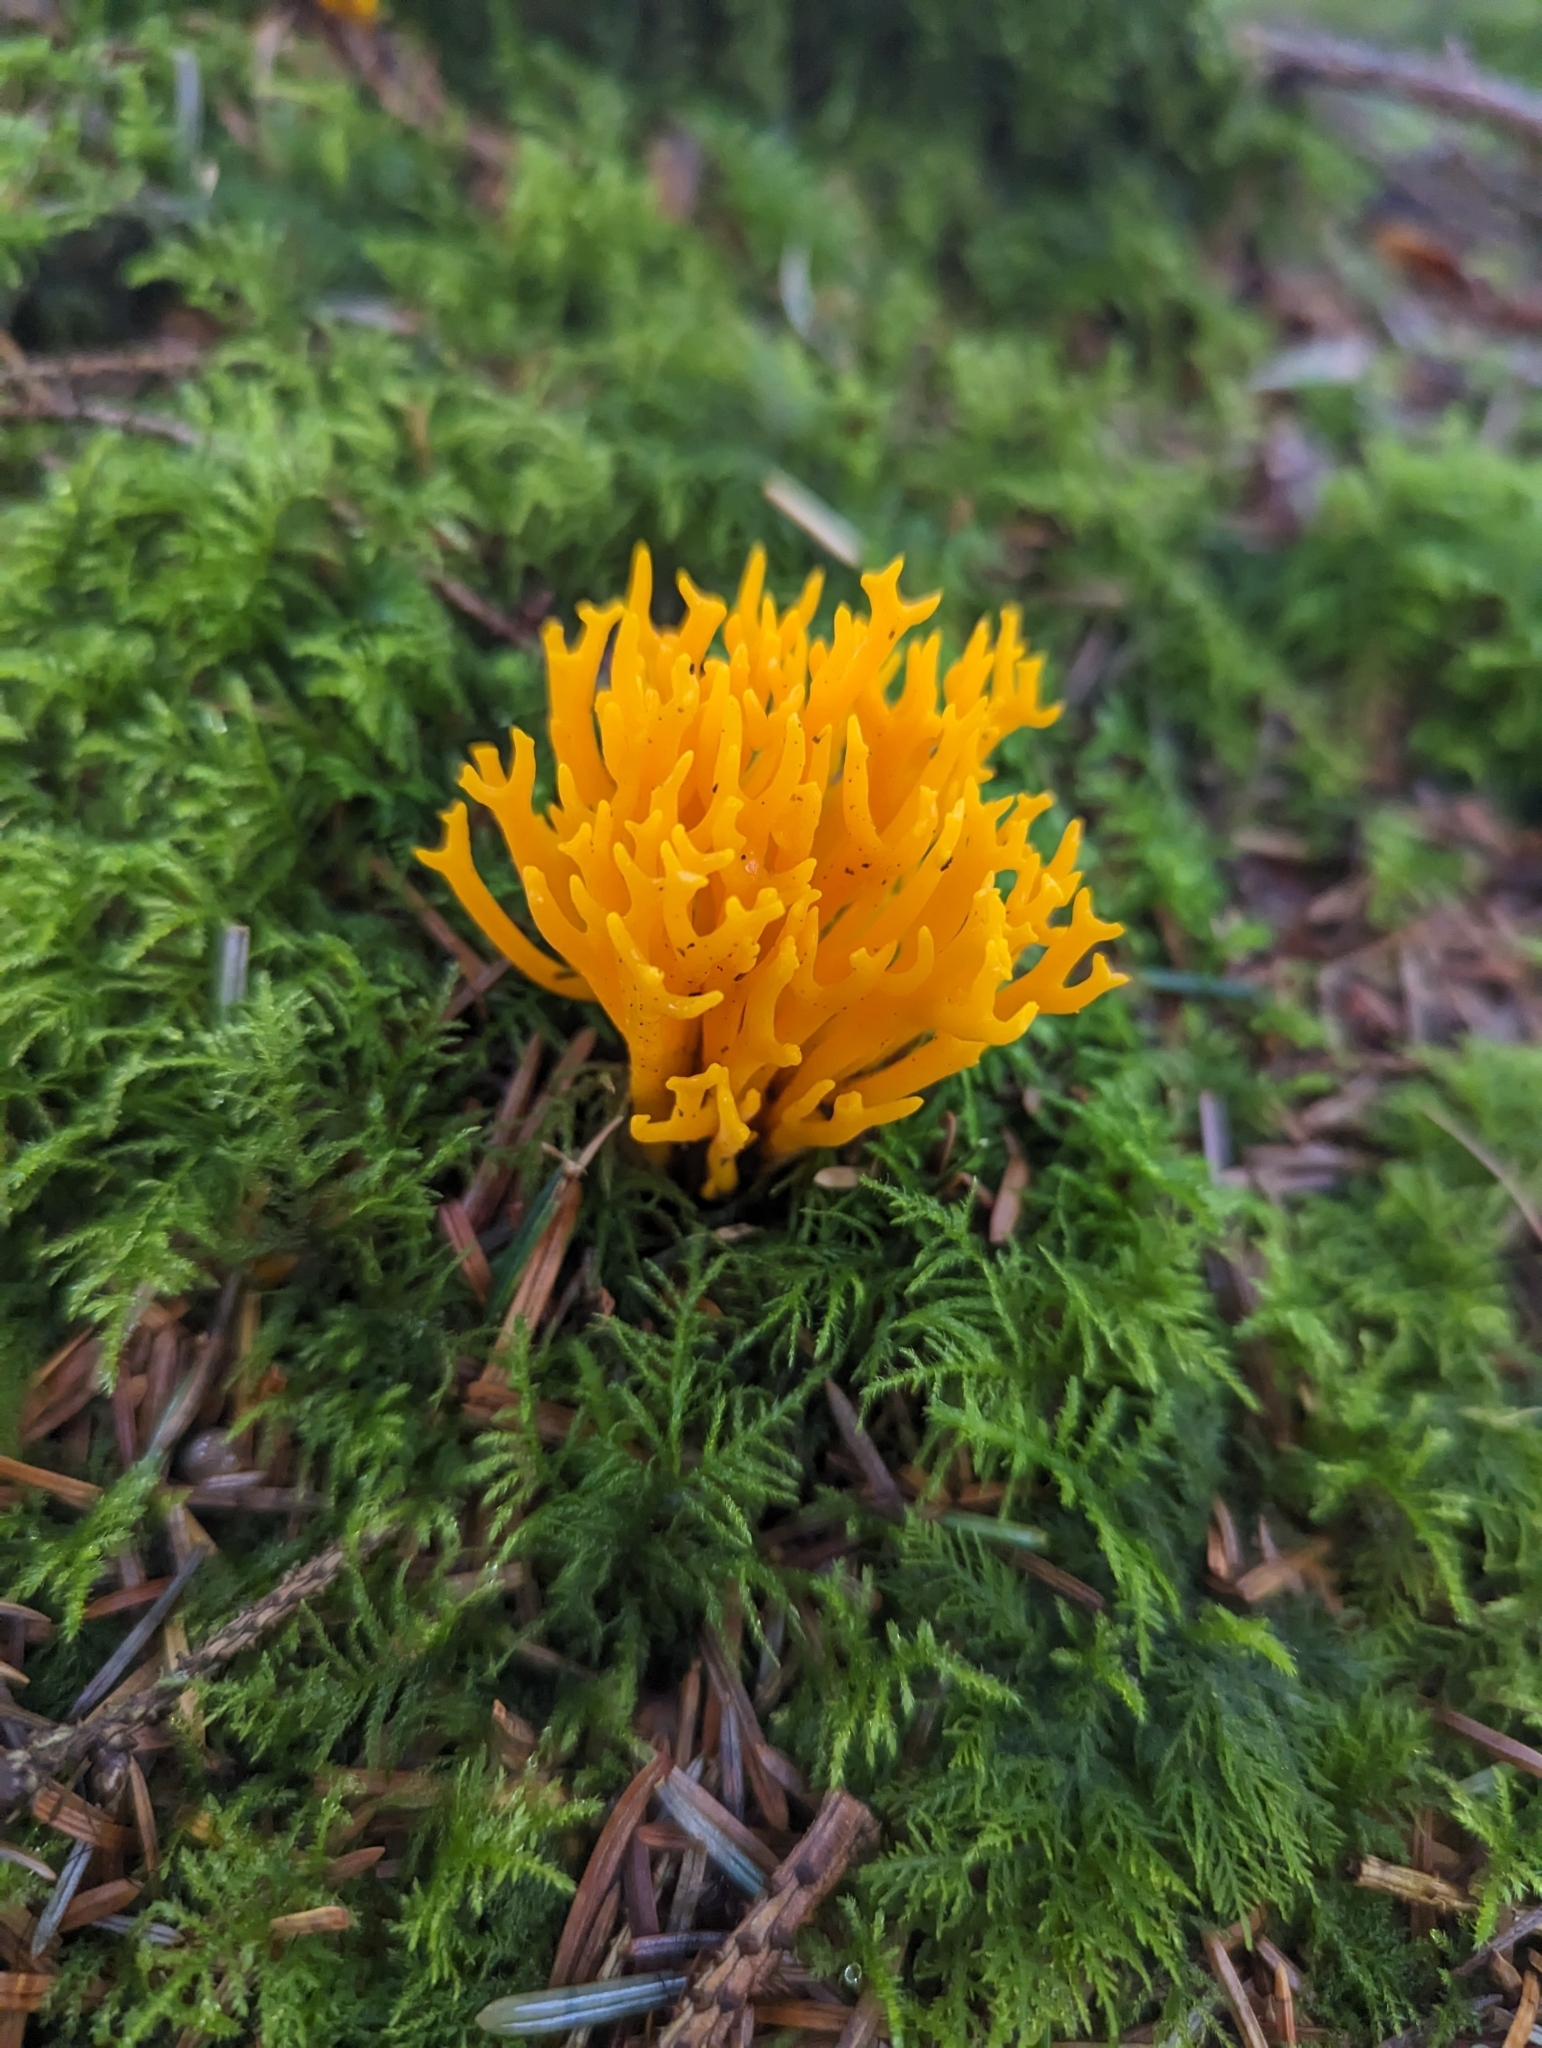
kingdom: Fungi
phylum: Basidiomycota
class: Dacrymycetes
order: Dacrymycetales
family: Dacrymycetaceae
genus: Calocera
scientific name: Calocera viscosa
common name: Yellow stagshorn
